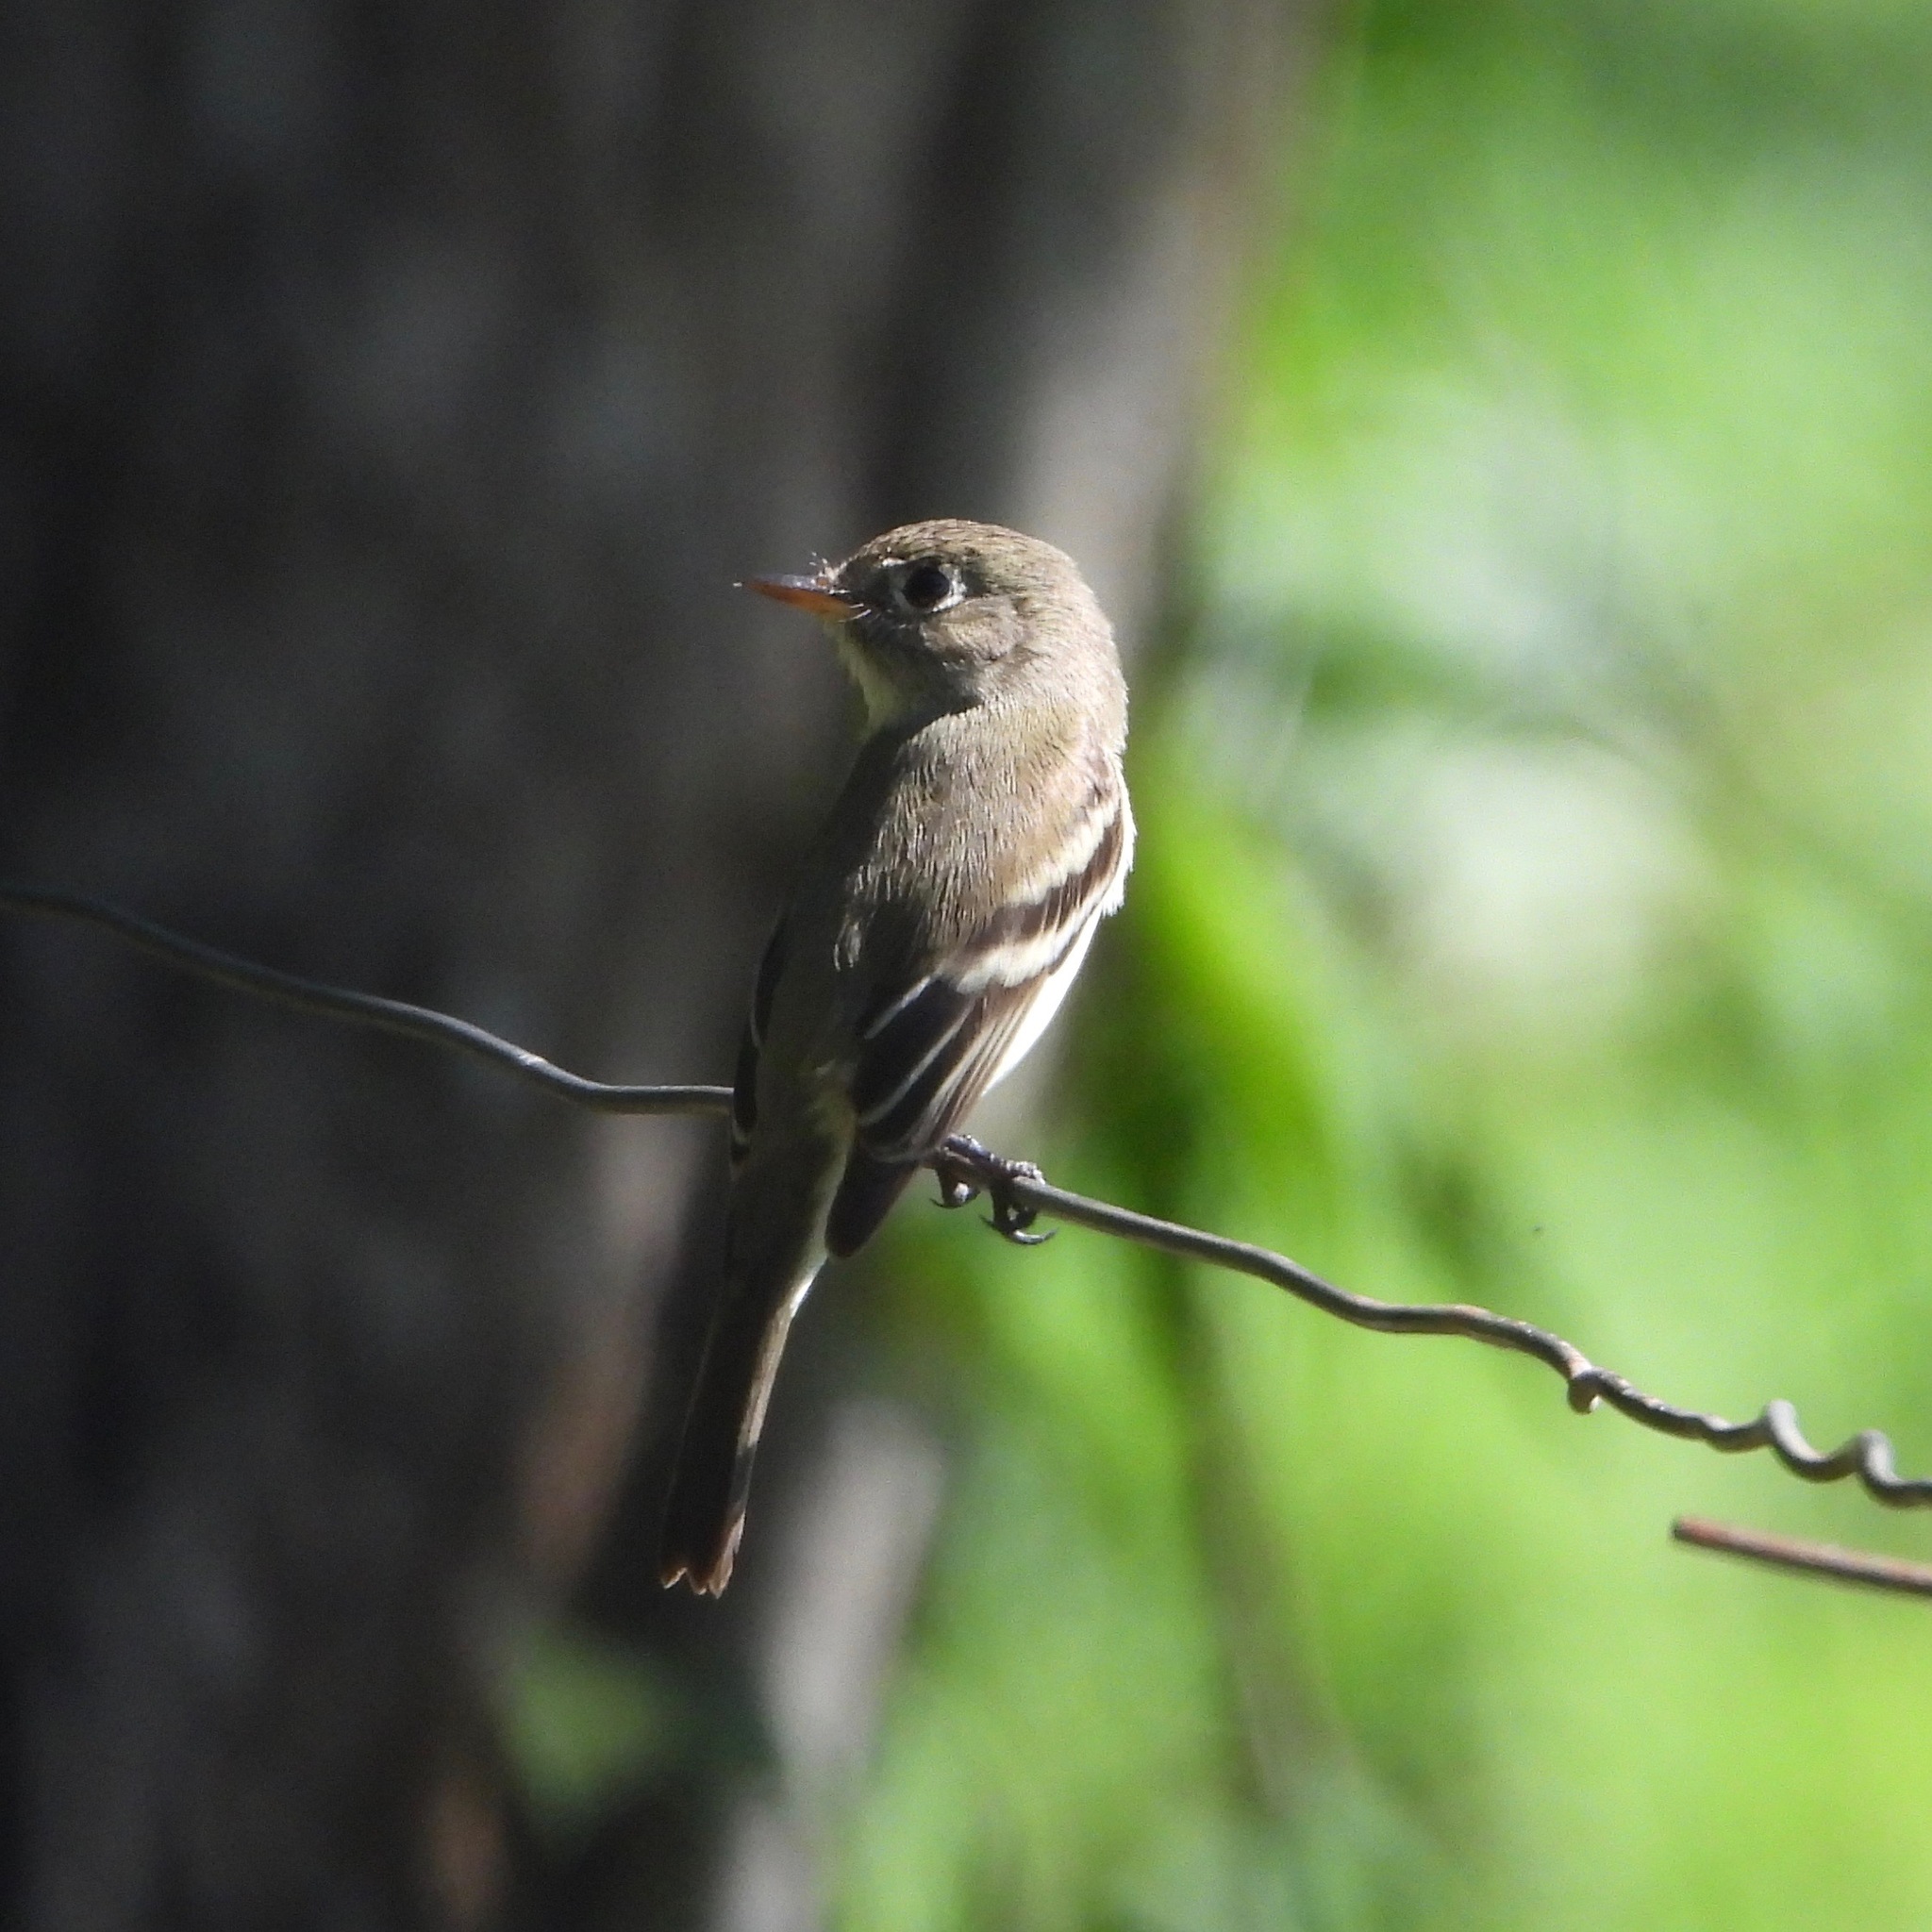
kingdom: Animalia
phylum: Chordata
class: Aves
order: Passeriformes
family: Tyrannidae
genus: Empidonax
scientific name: Empidonax minimus
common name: Least flycatcher
